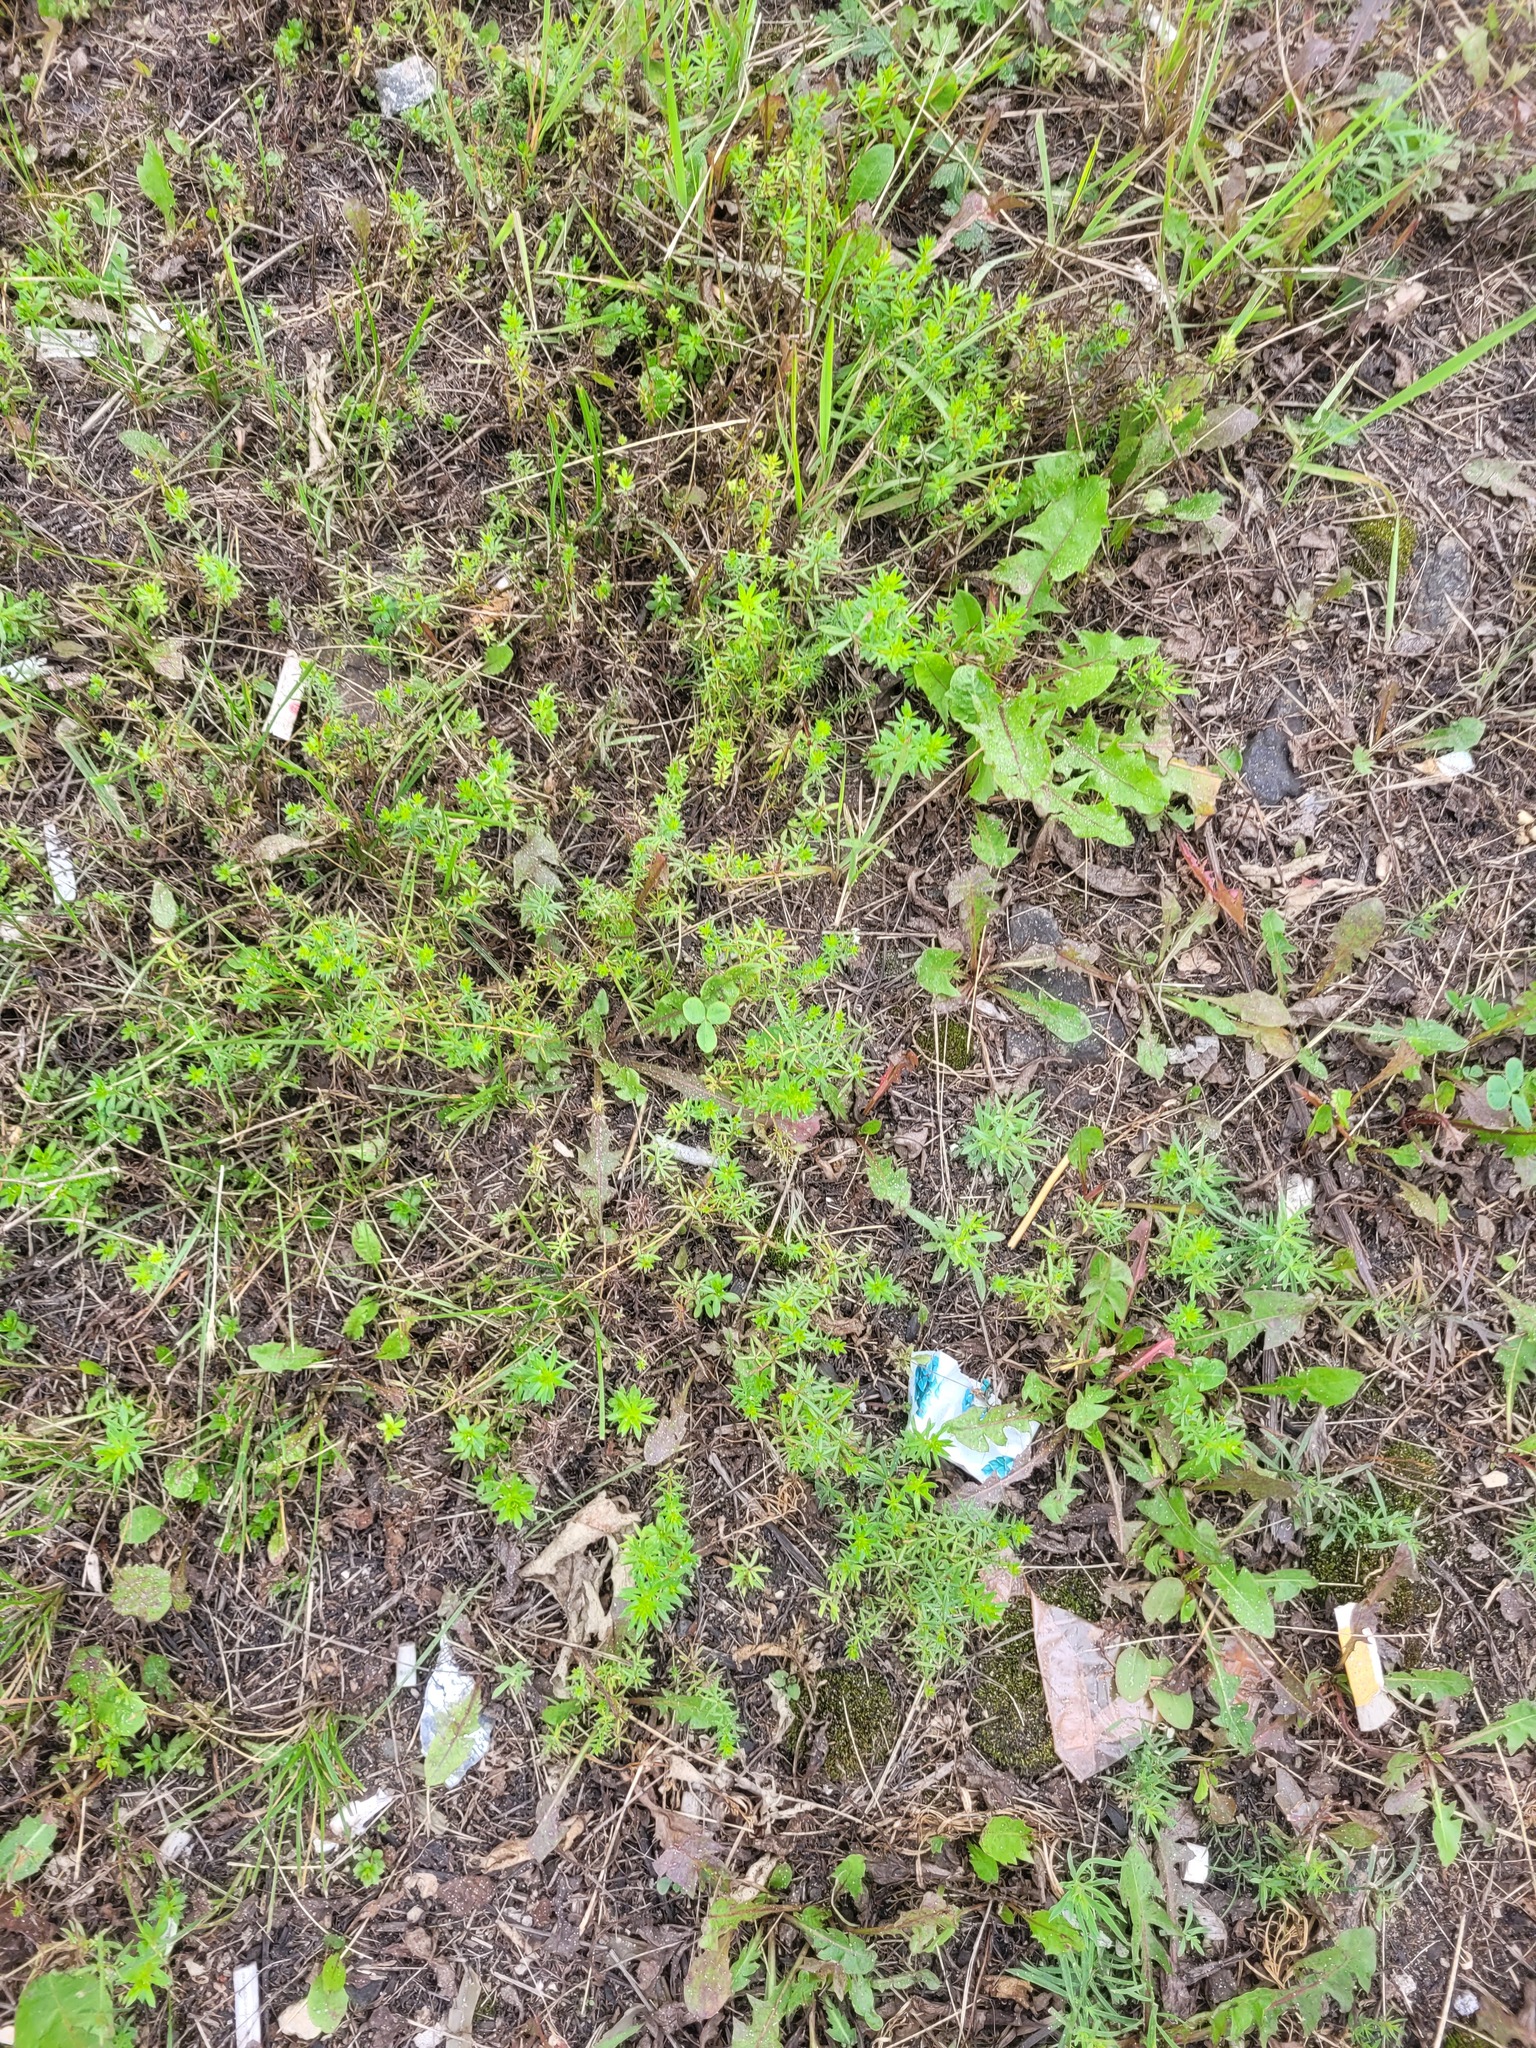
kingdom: Plantae
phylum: Tracheophyta
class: Magnoliopsida
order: Gentianales
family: Rubiaceae
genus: Galium
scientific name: Galium mollugo
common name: Hedge bedstraw
